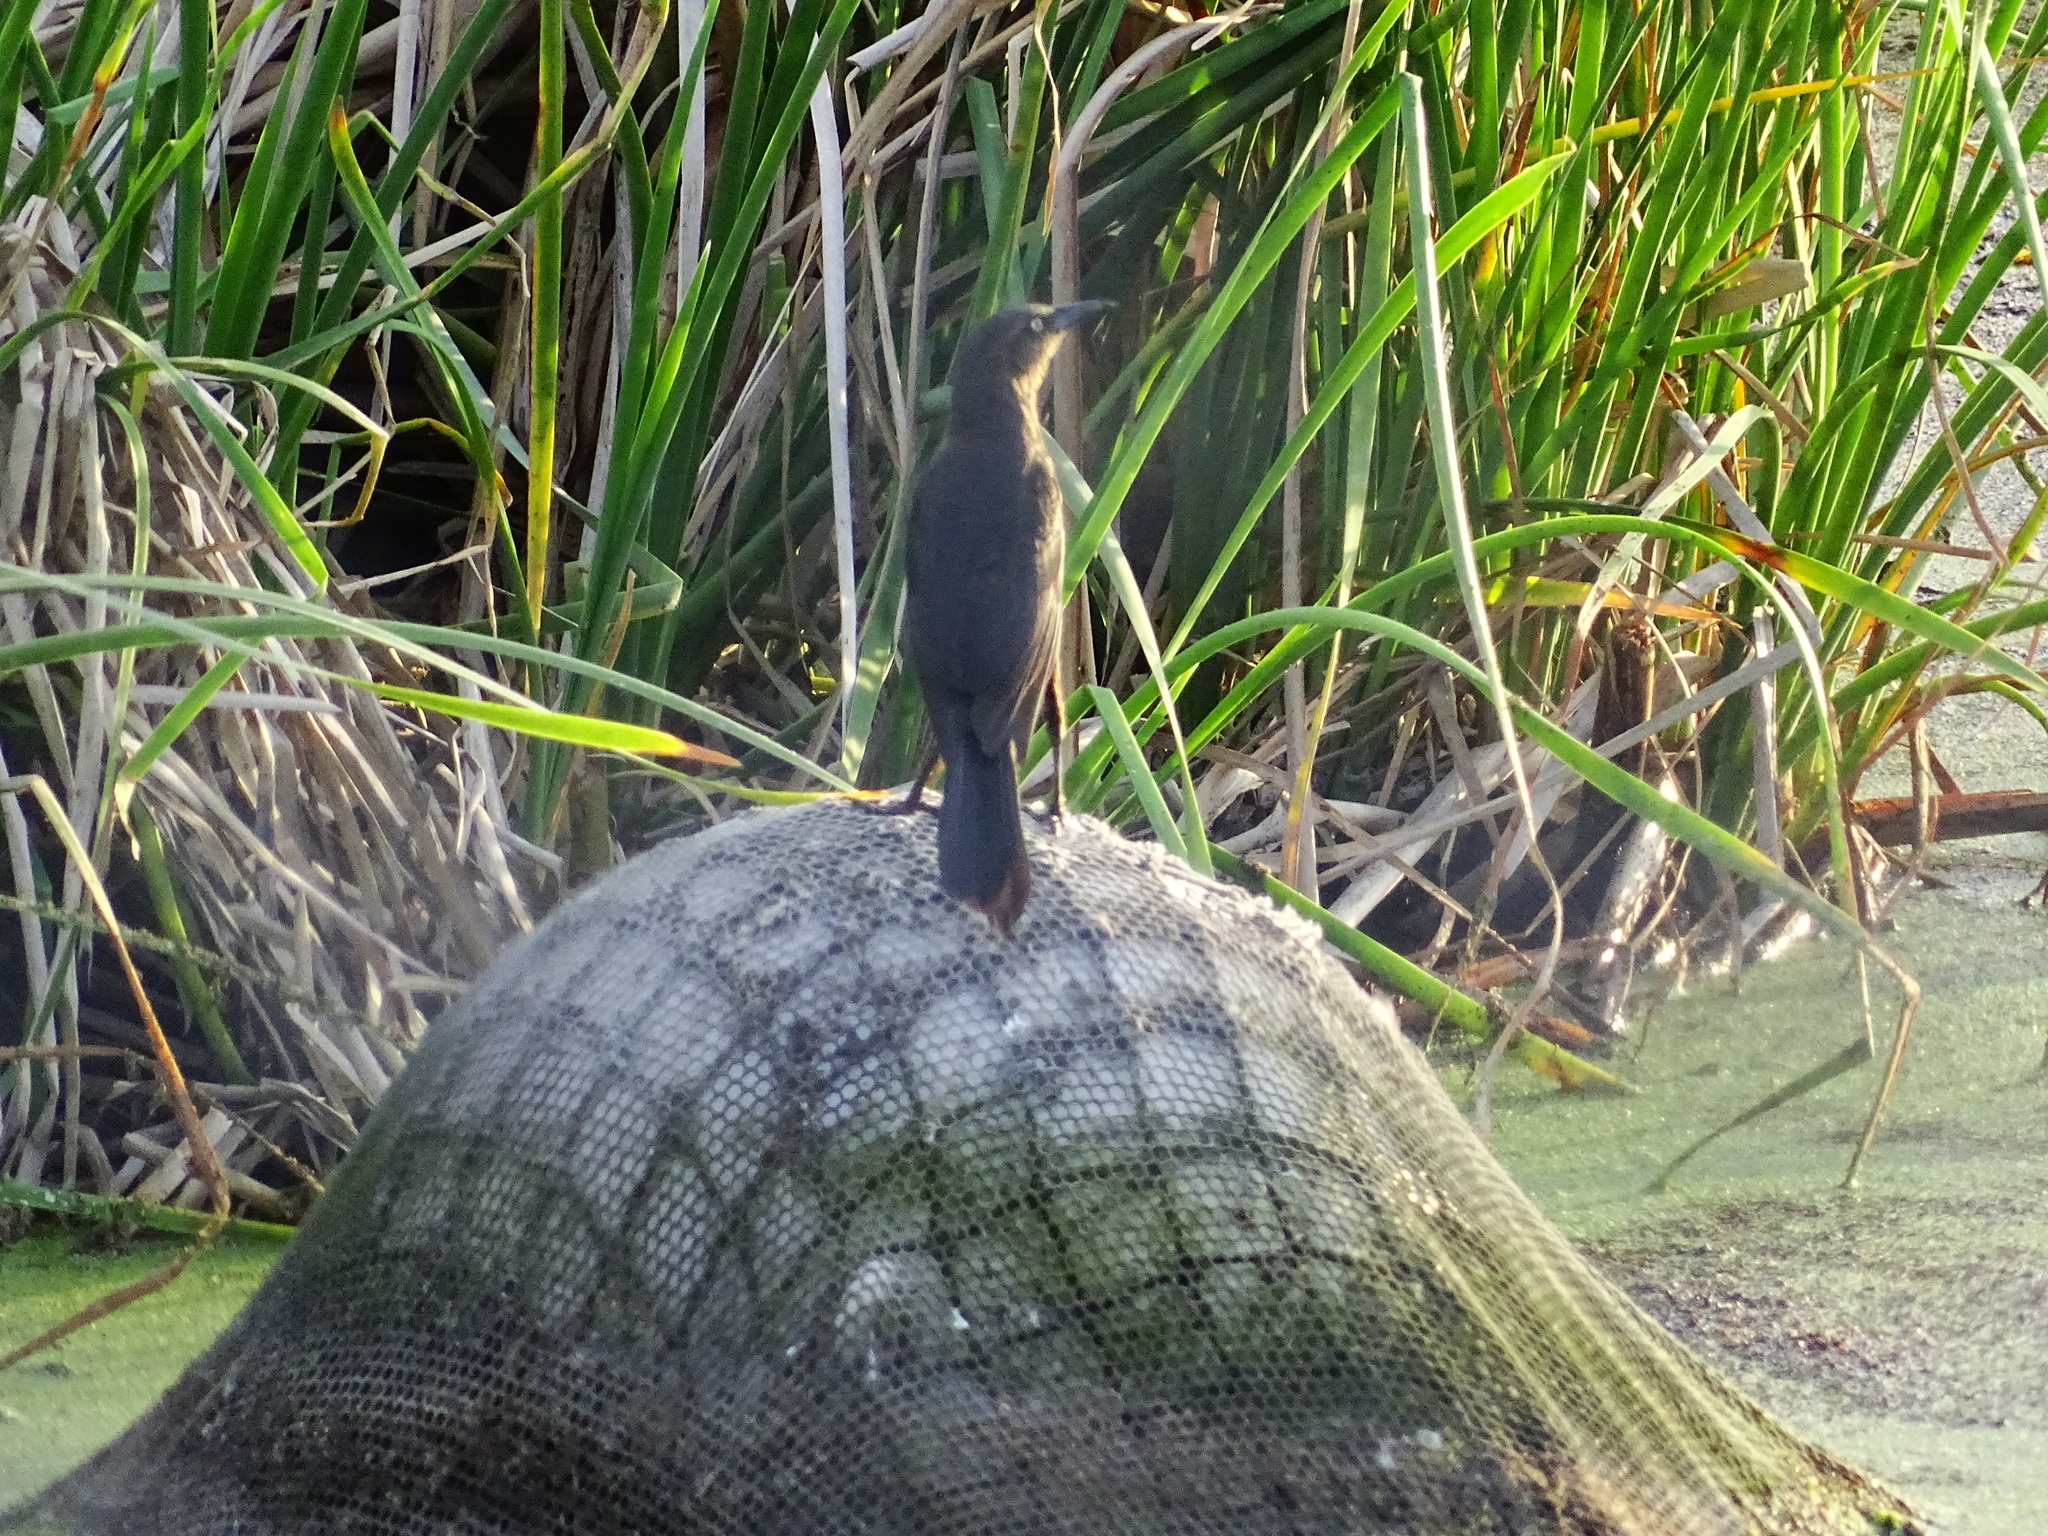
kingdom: Animalia
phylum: Chordata
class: Aves
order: Passeriformes
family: Icteridae
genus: Quiscalus
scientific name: Quiscalus mexicanus
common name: Great-tailed grackle
